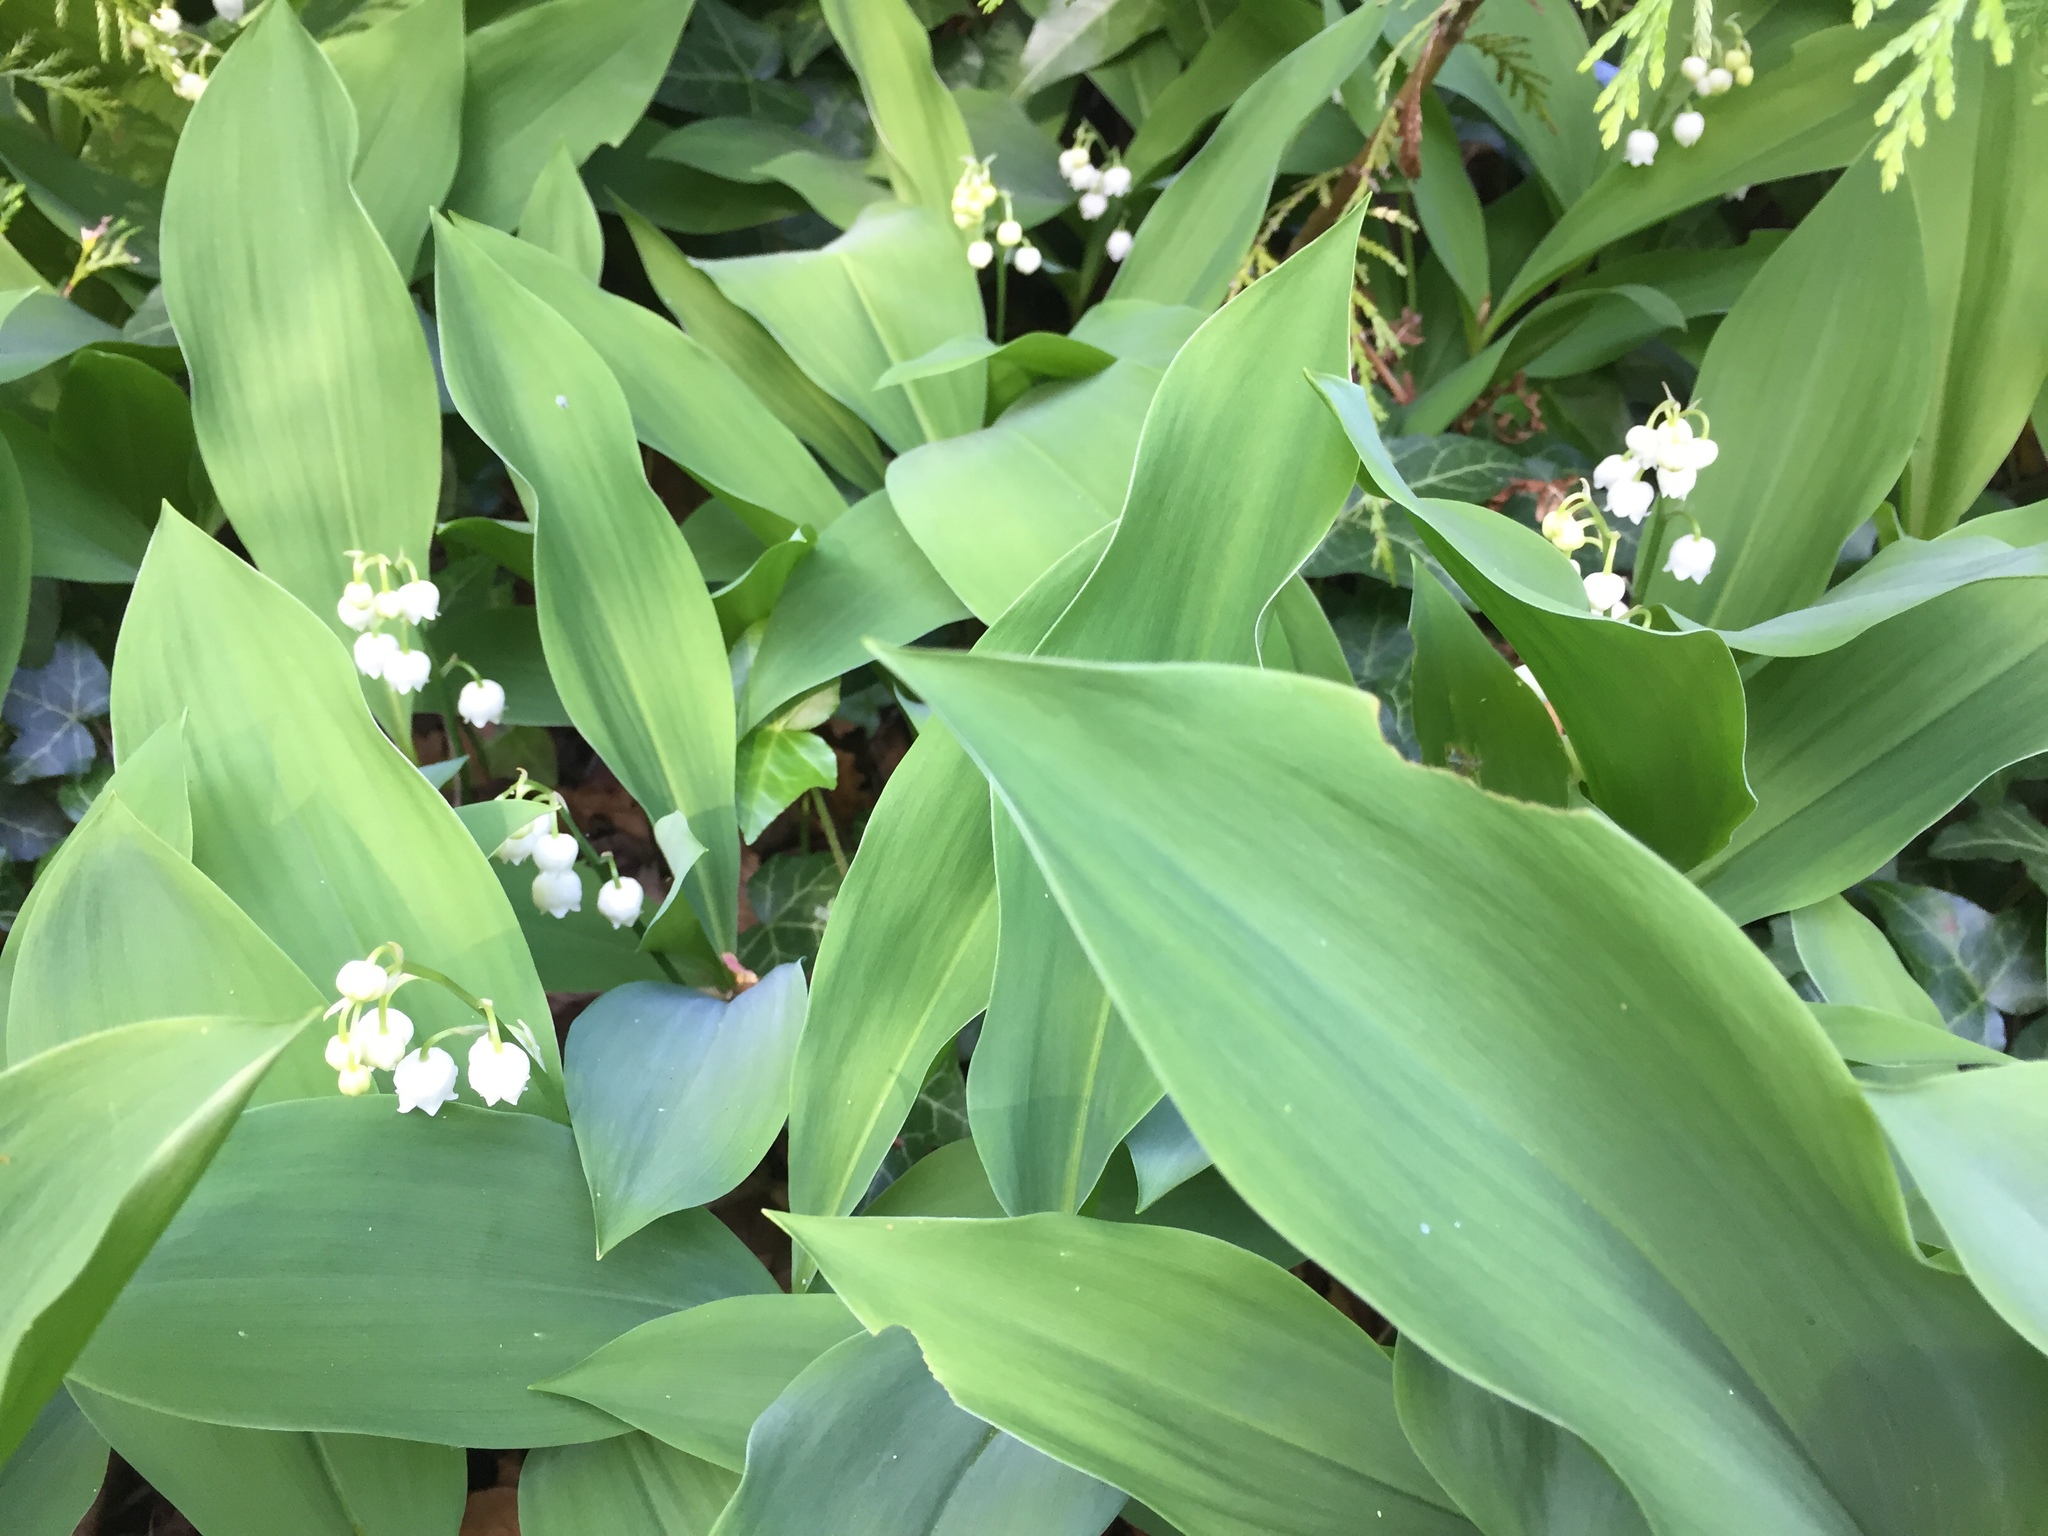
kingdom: Plantae
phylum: Tracheophyta
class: Liliopsida
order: Asparagales
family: Asparagaceae
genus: Convallaria
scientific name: Convallaria majalis
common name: Lily-of-the-valley
